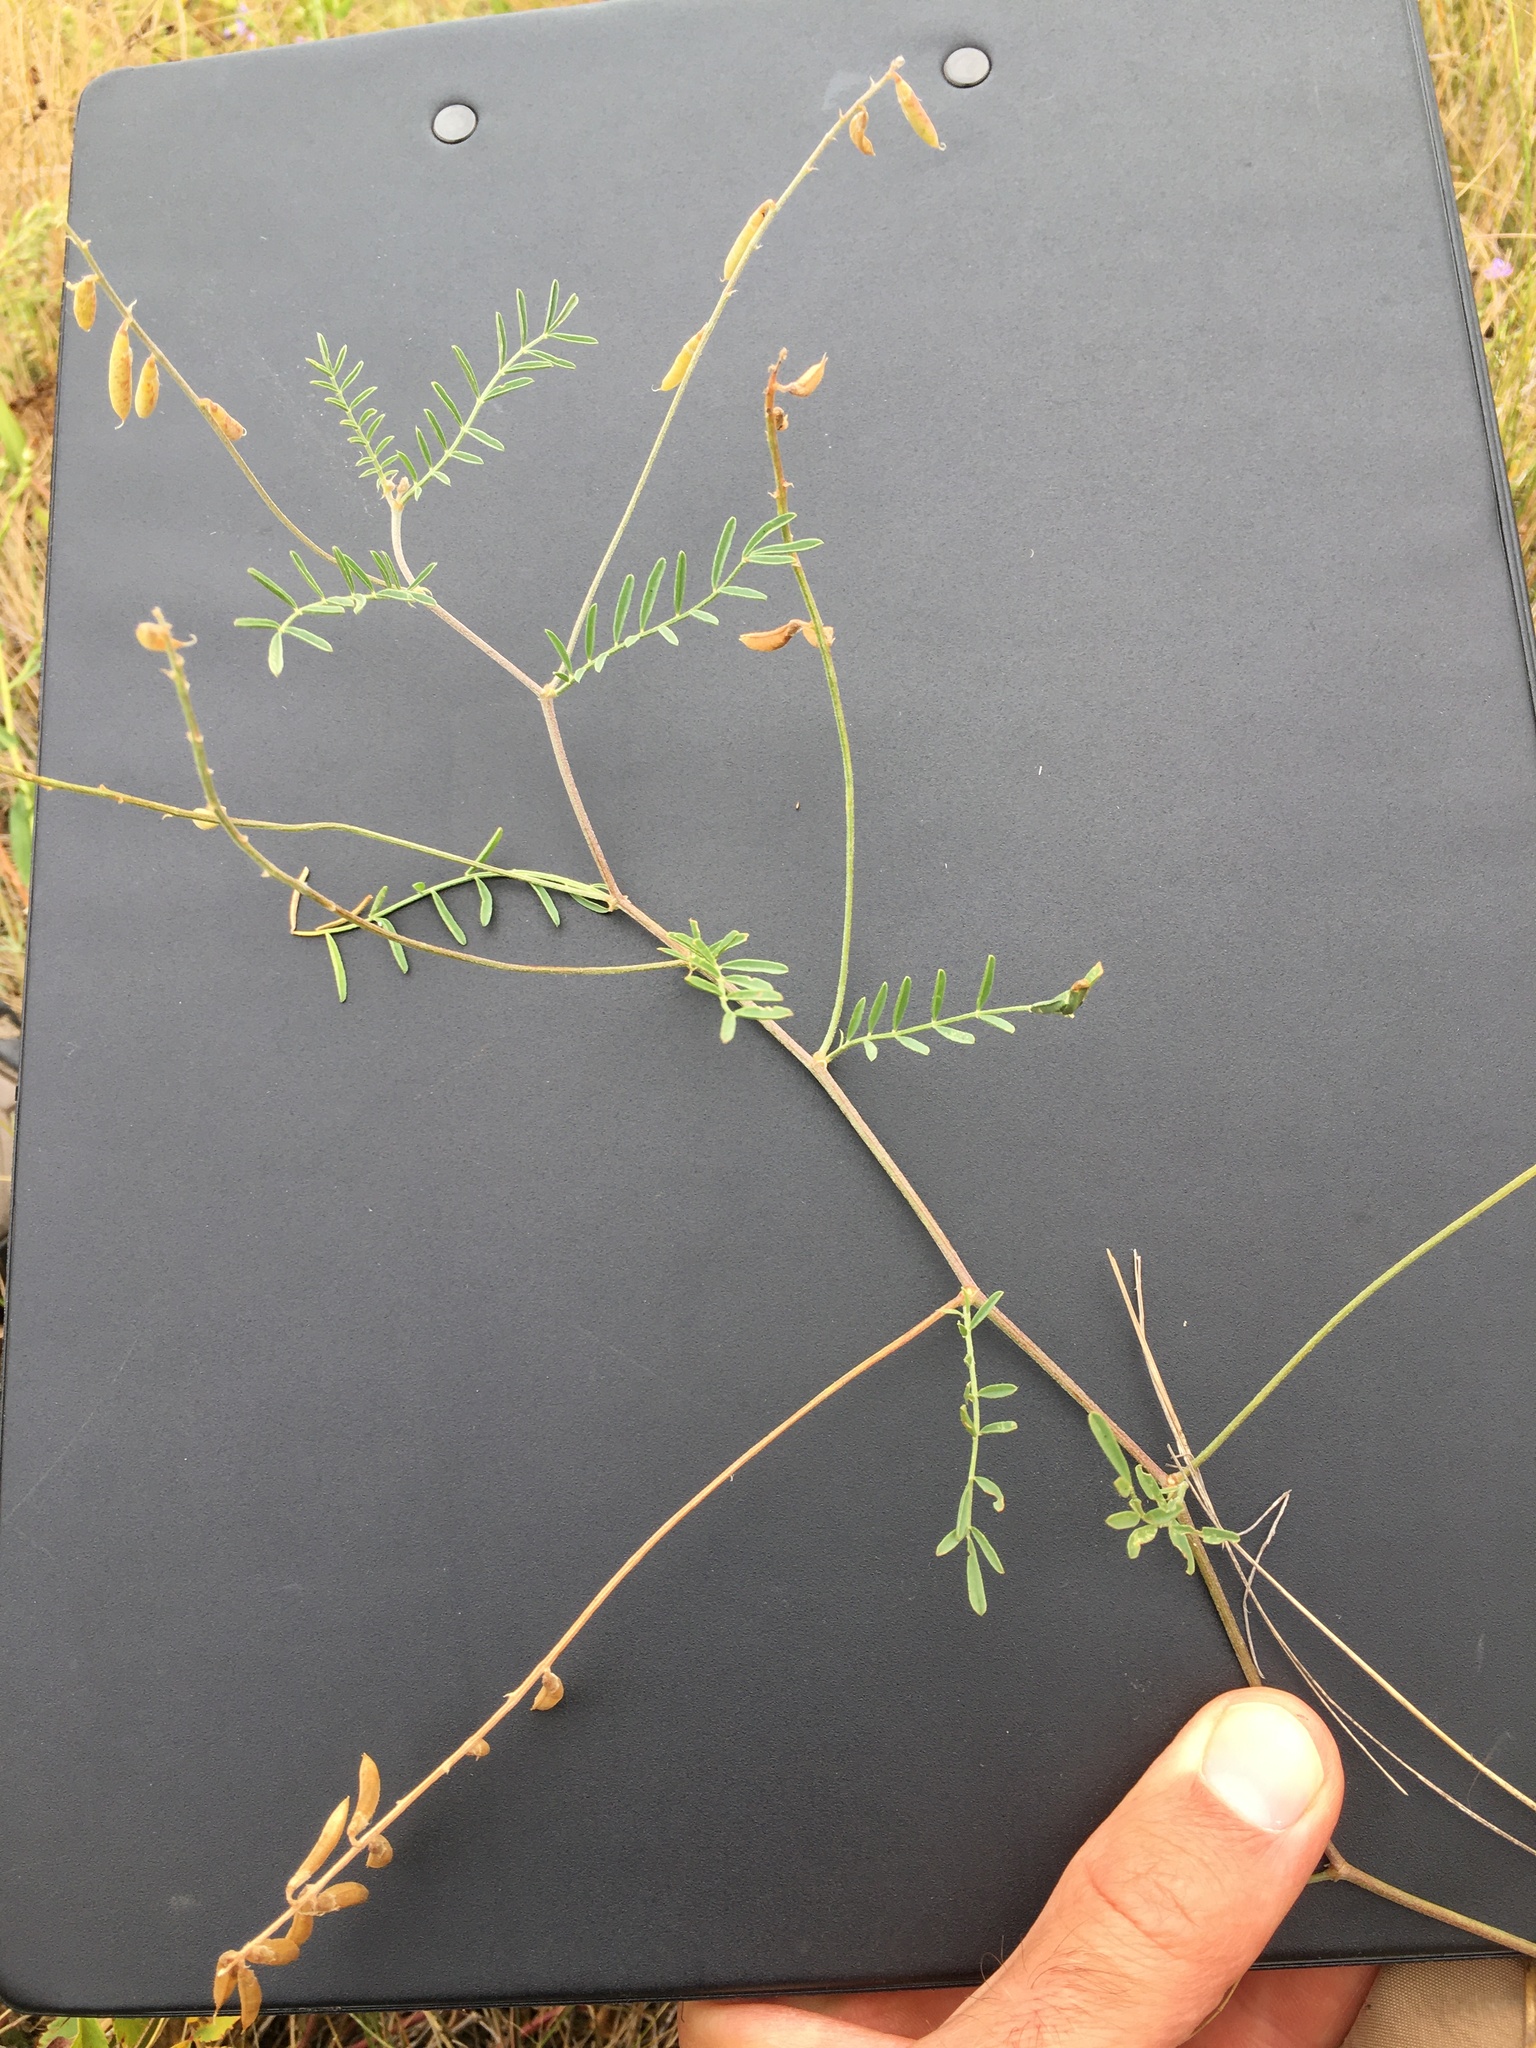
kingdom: Plantae
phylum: Tracheophyta
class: Magnoliopsida
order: Fabales
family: Fabaceae
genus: Astragalus
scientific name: Astragalus flexuosus
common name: Pliant milk-vetch
